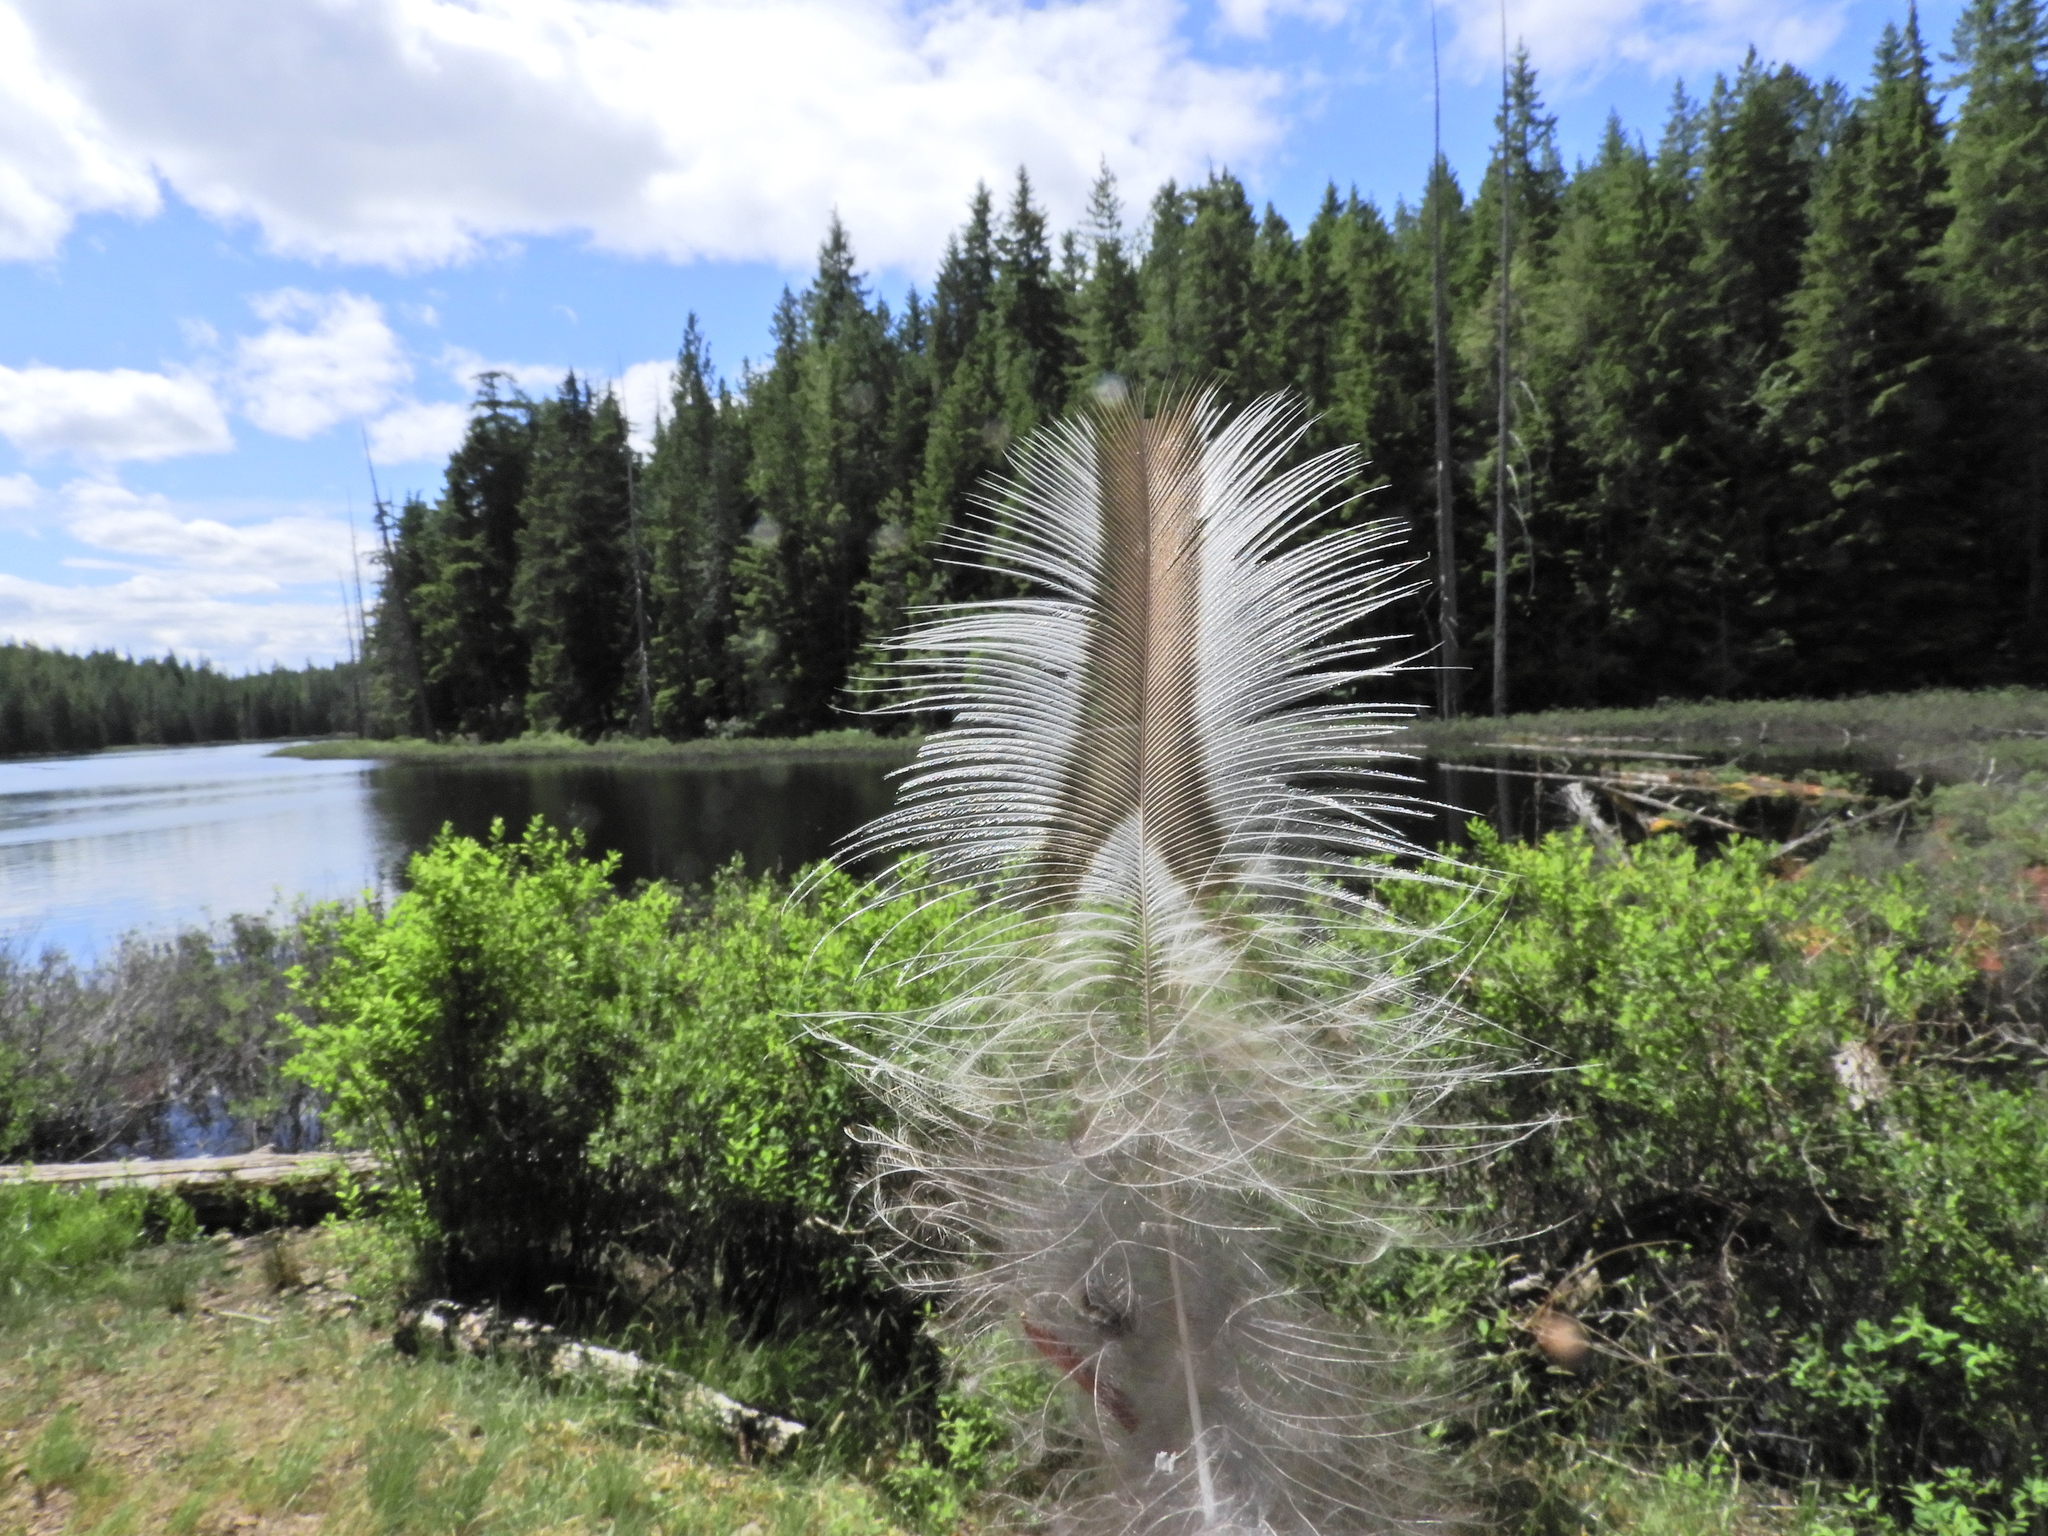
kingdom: Animalia
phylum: Chordata
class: Aves
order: Strigiformes
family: Strigidae
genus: Strix
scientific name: Strix varia
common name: Barred owl
